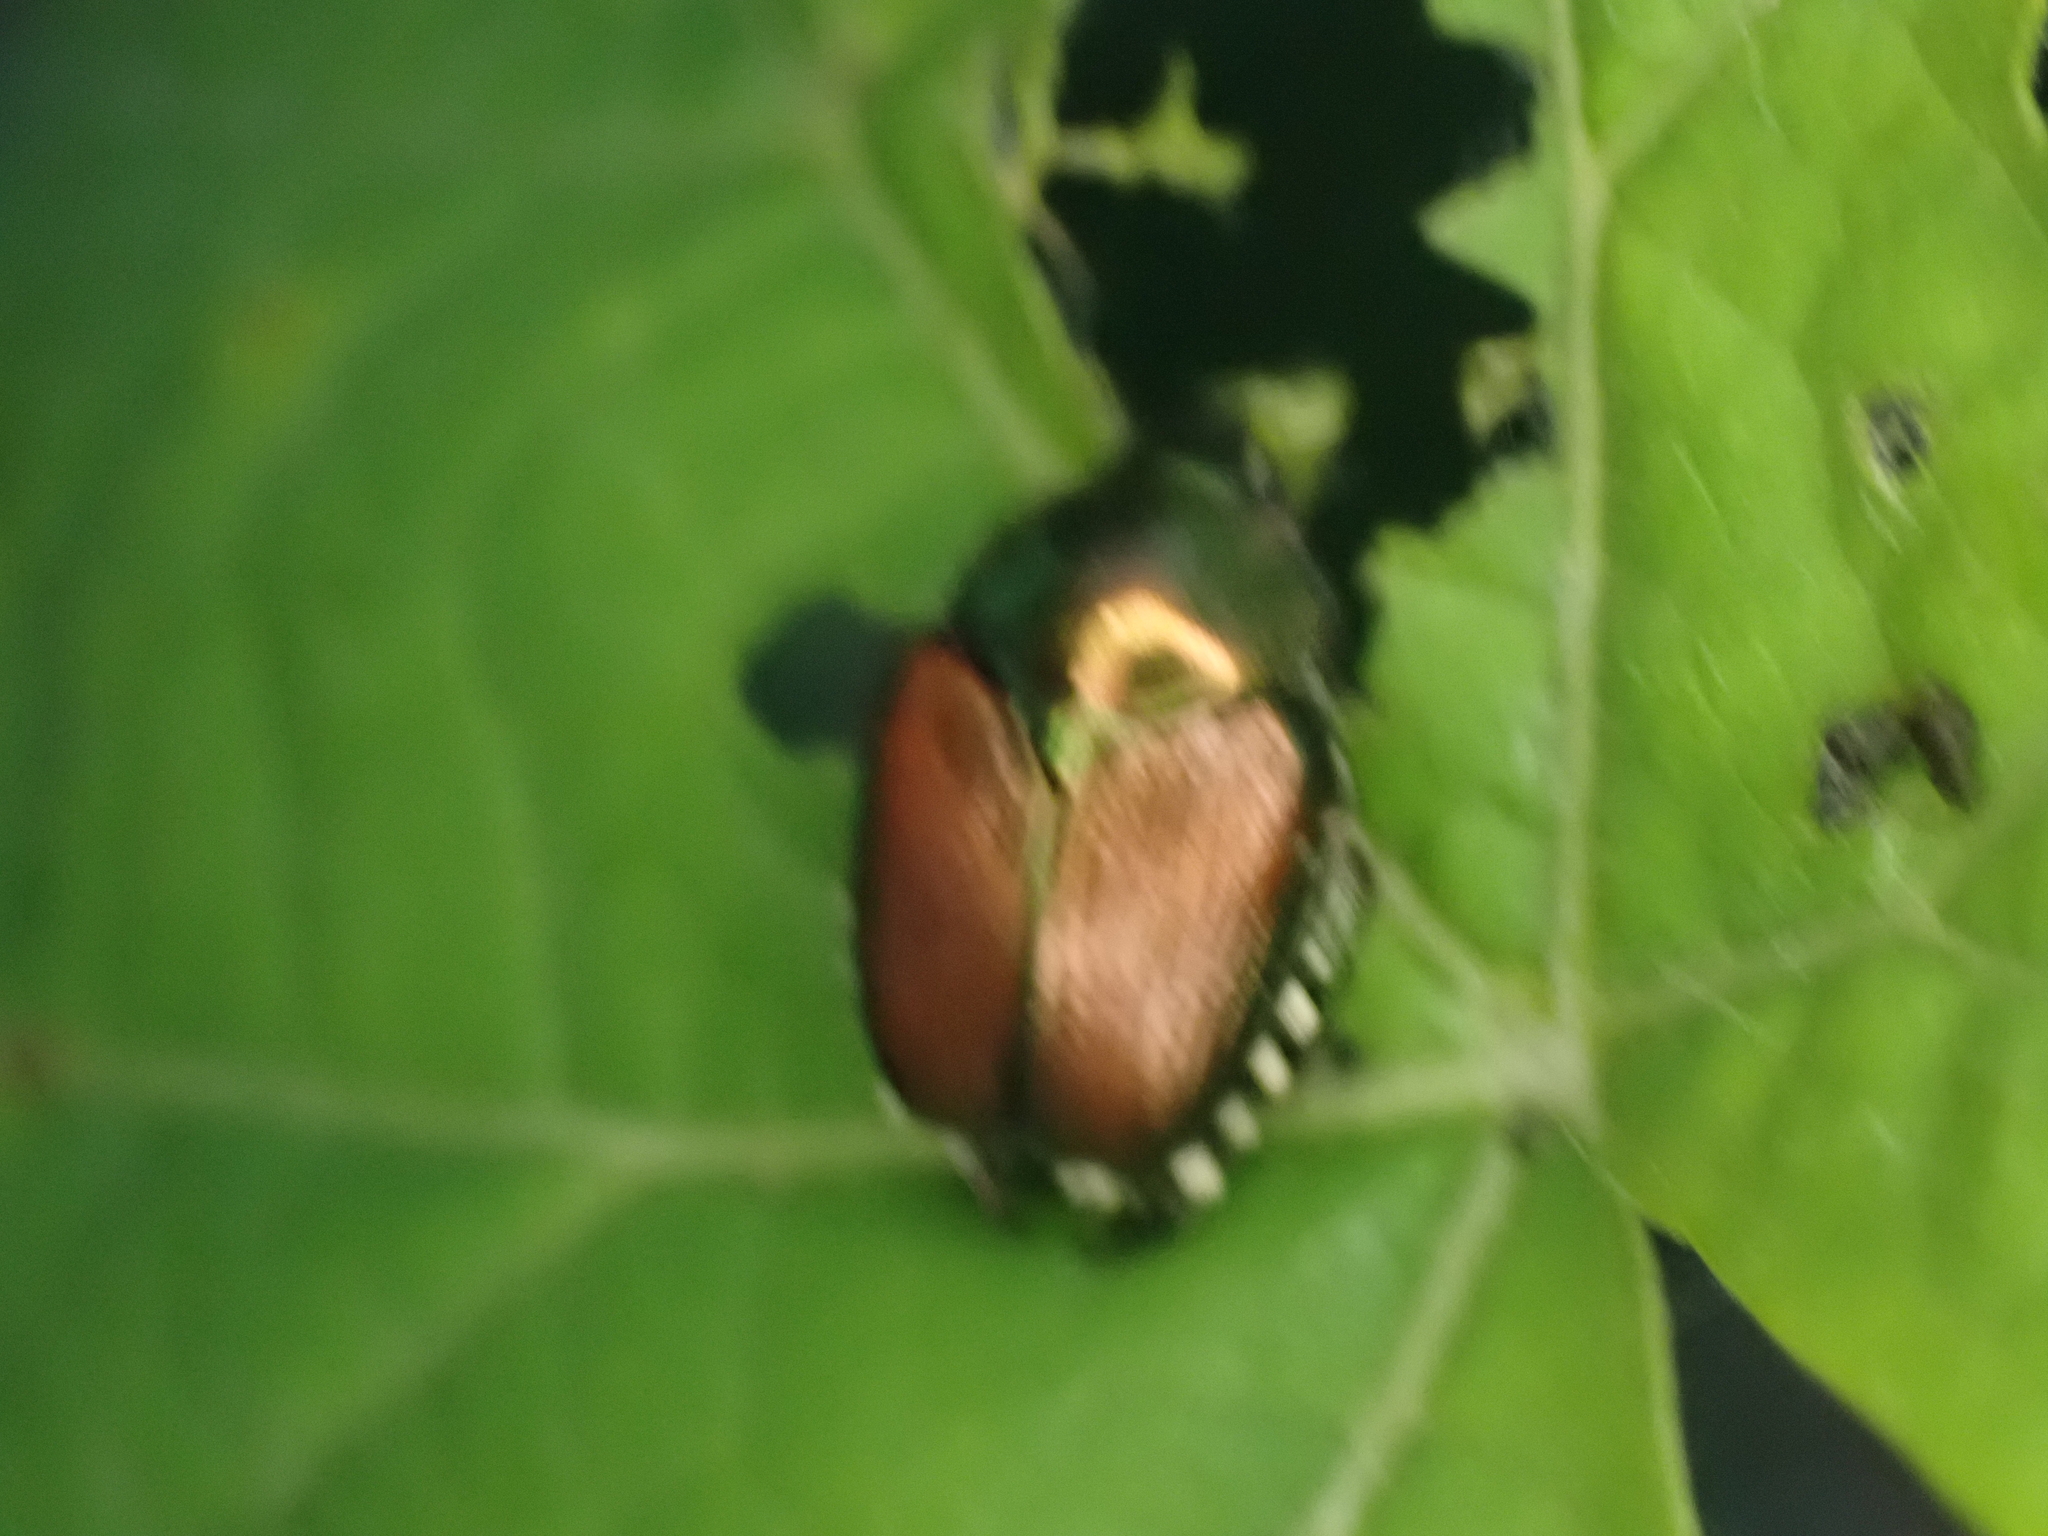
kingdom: Animalia
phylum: Arthropoda
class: Insecta
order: Coleoptera
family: Scarabaeidae
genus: Popillia
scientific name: Popillia japonica
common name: Japanese beetle
